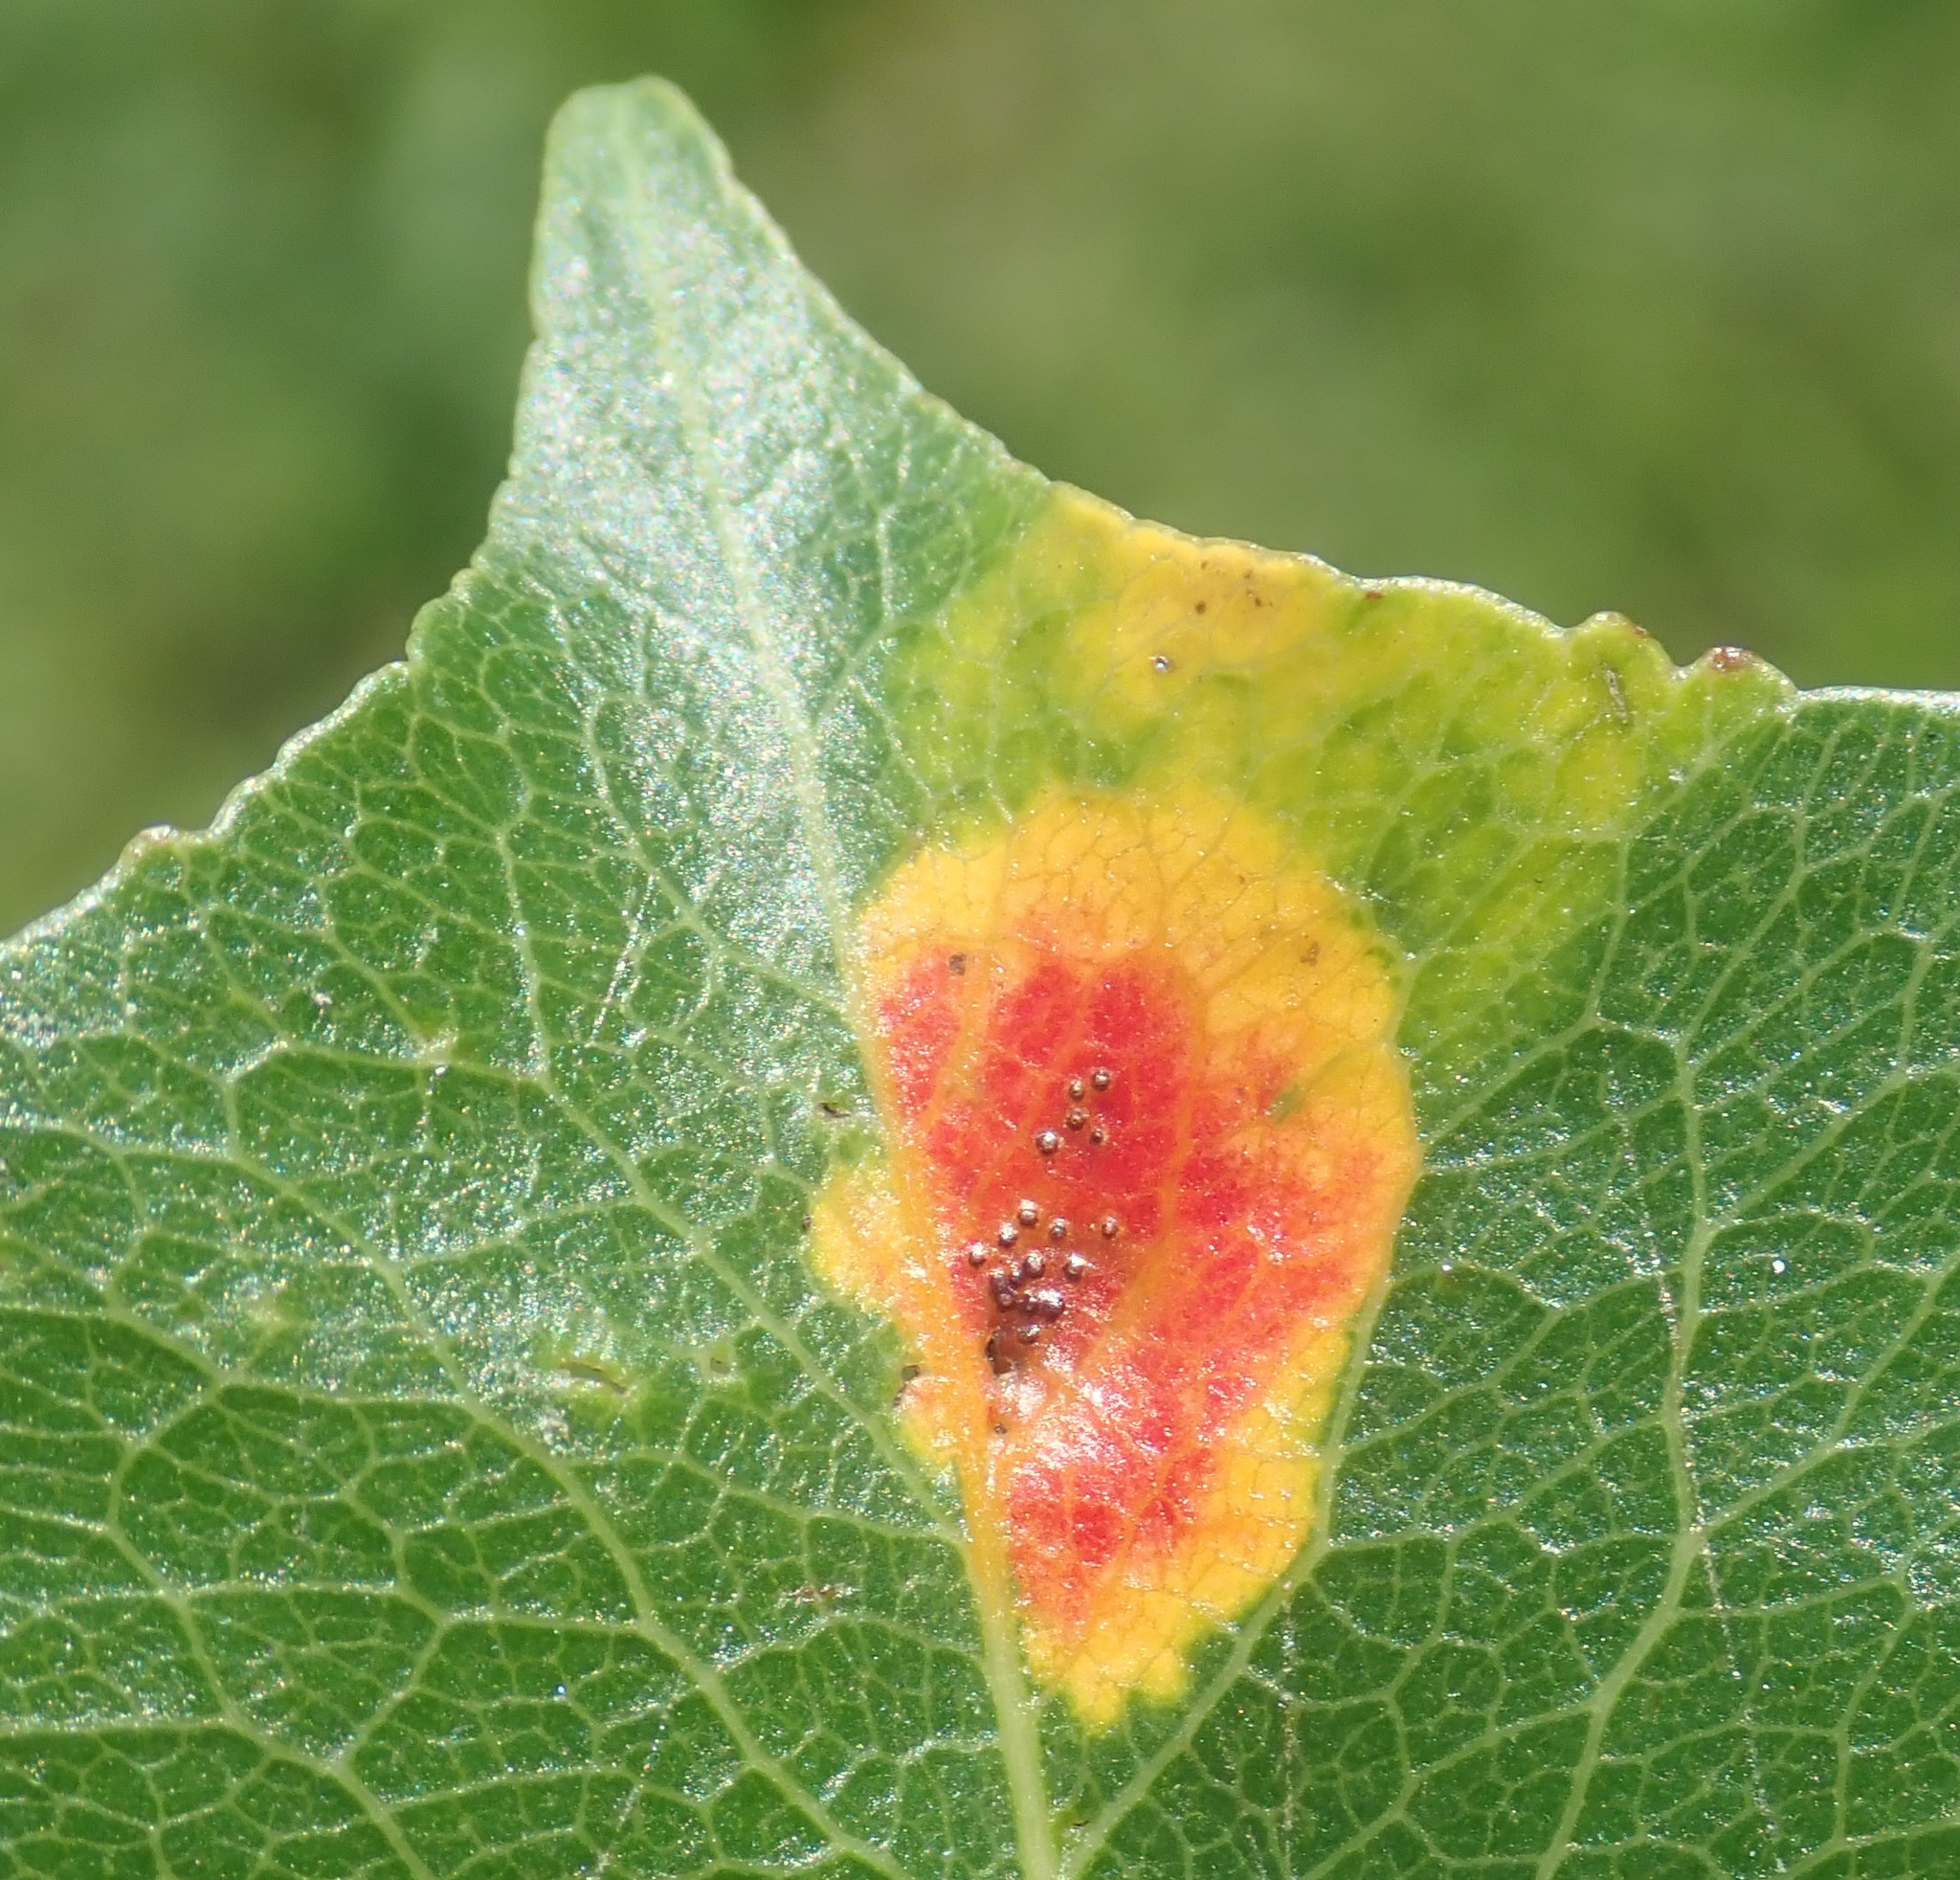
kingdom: Fungi
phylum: Basidiomycota
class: Pucciniomycetes
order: Pucciniales
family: Gymnosporangiaceae
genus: Gymnosporangium
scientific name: Gymnosporangium sabinae
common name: Pear trellis rust fungus
